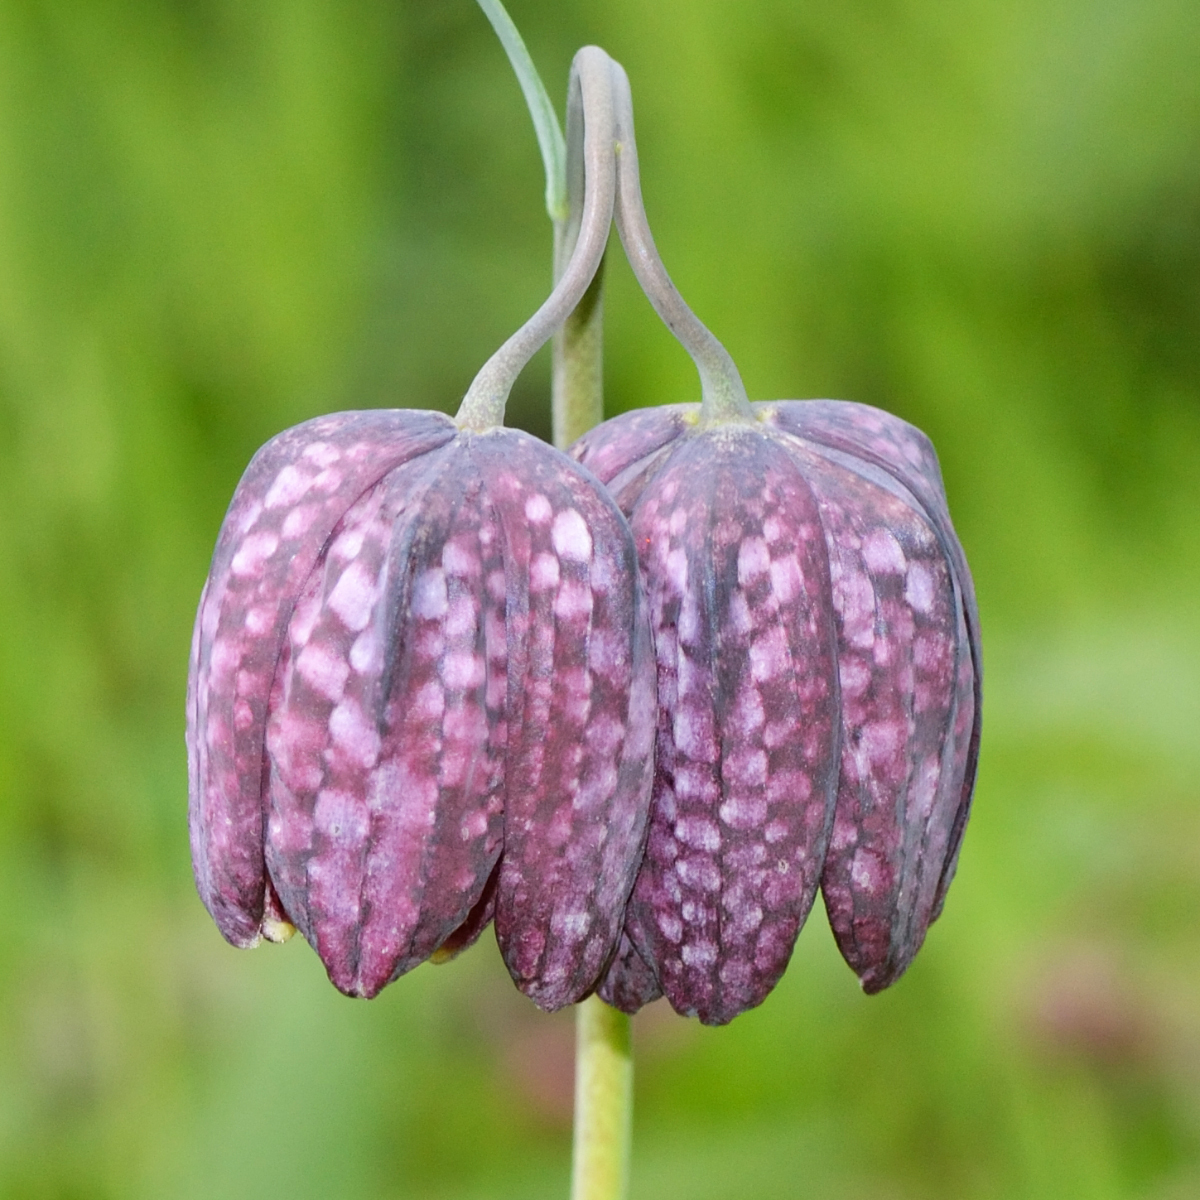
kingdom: Plantae
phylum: Tracheophyta
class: Liliopsida
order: Liliales
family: Liliaceae
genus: Fritillaria
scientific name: Fritillaria meleagris
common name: Fritillary
